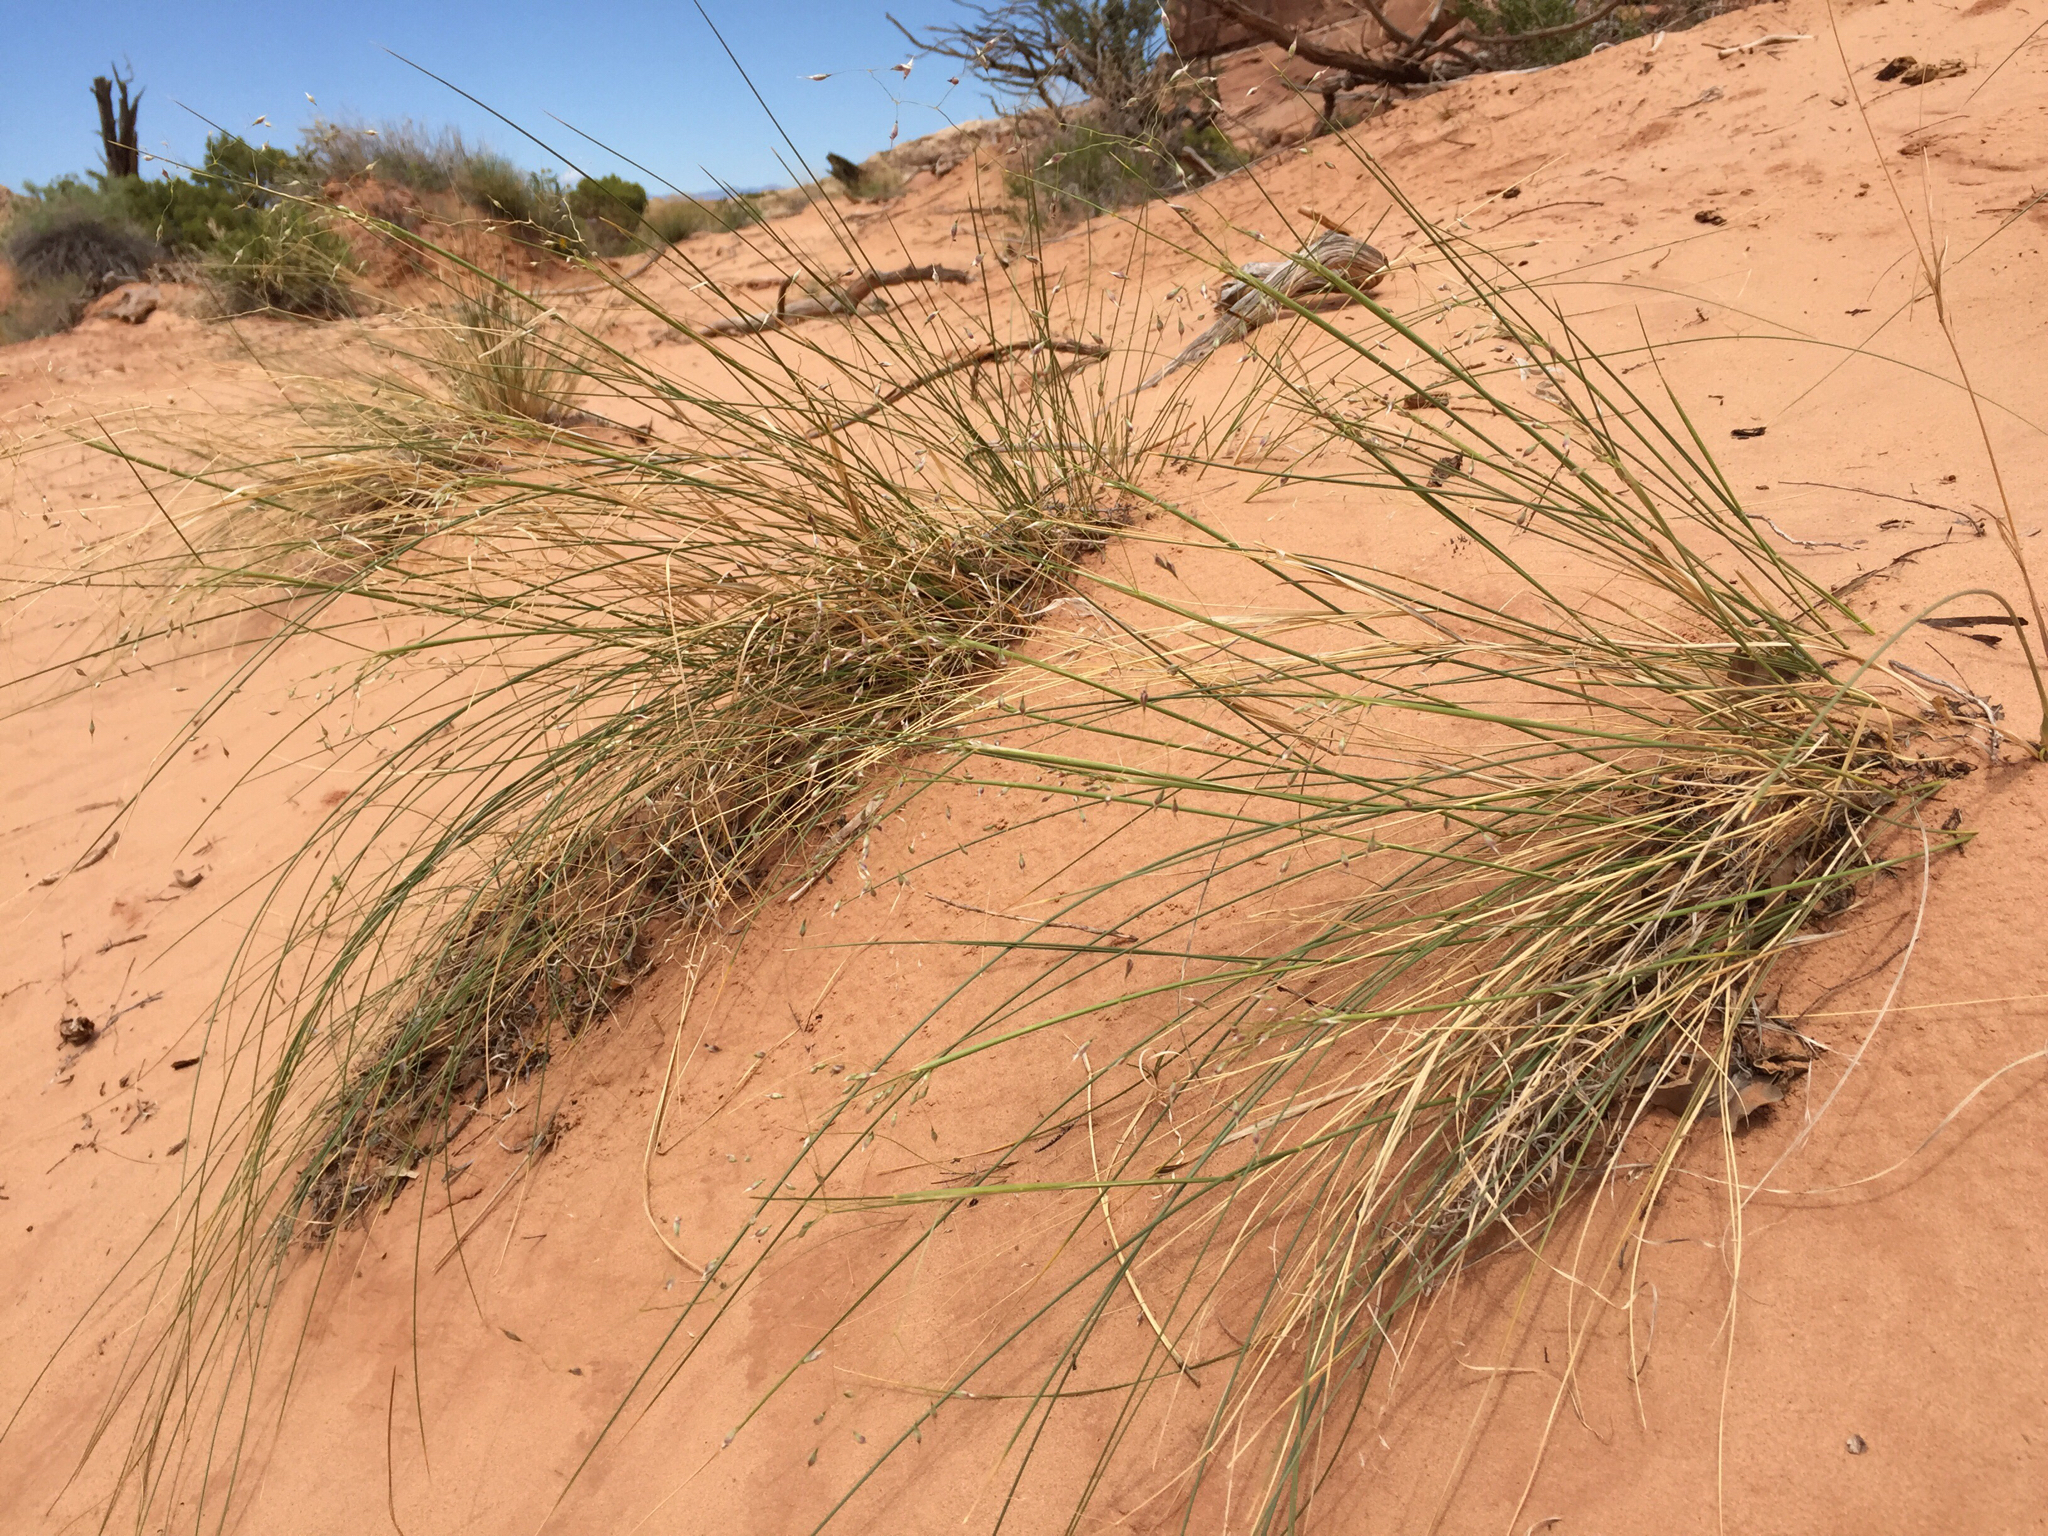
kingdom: Plantae
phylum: Tracheophyta
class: Liliopsida
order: Poales
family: Poaceae
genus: Eriocoma
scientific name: Eriocoma hymenoides
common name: Indian mountain ricegrass
